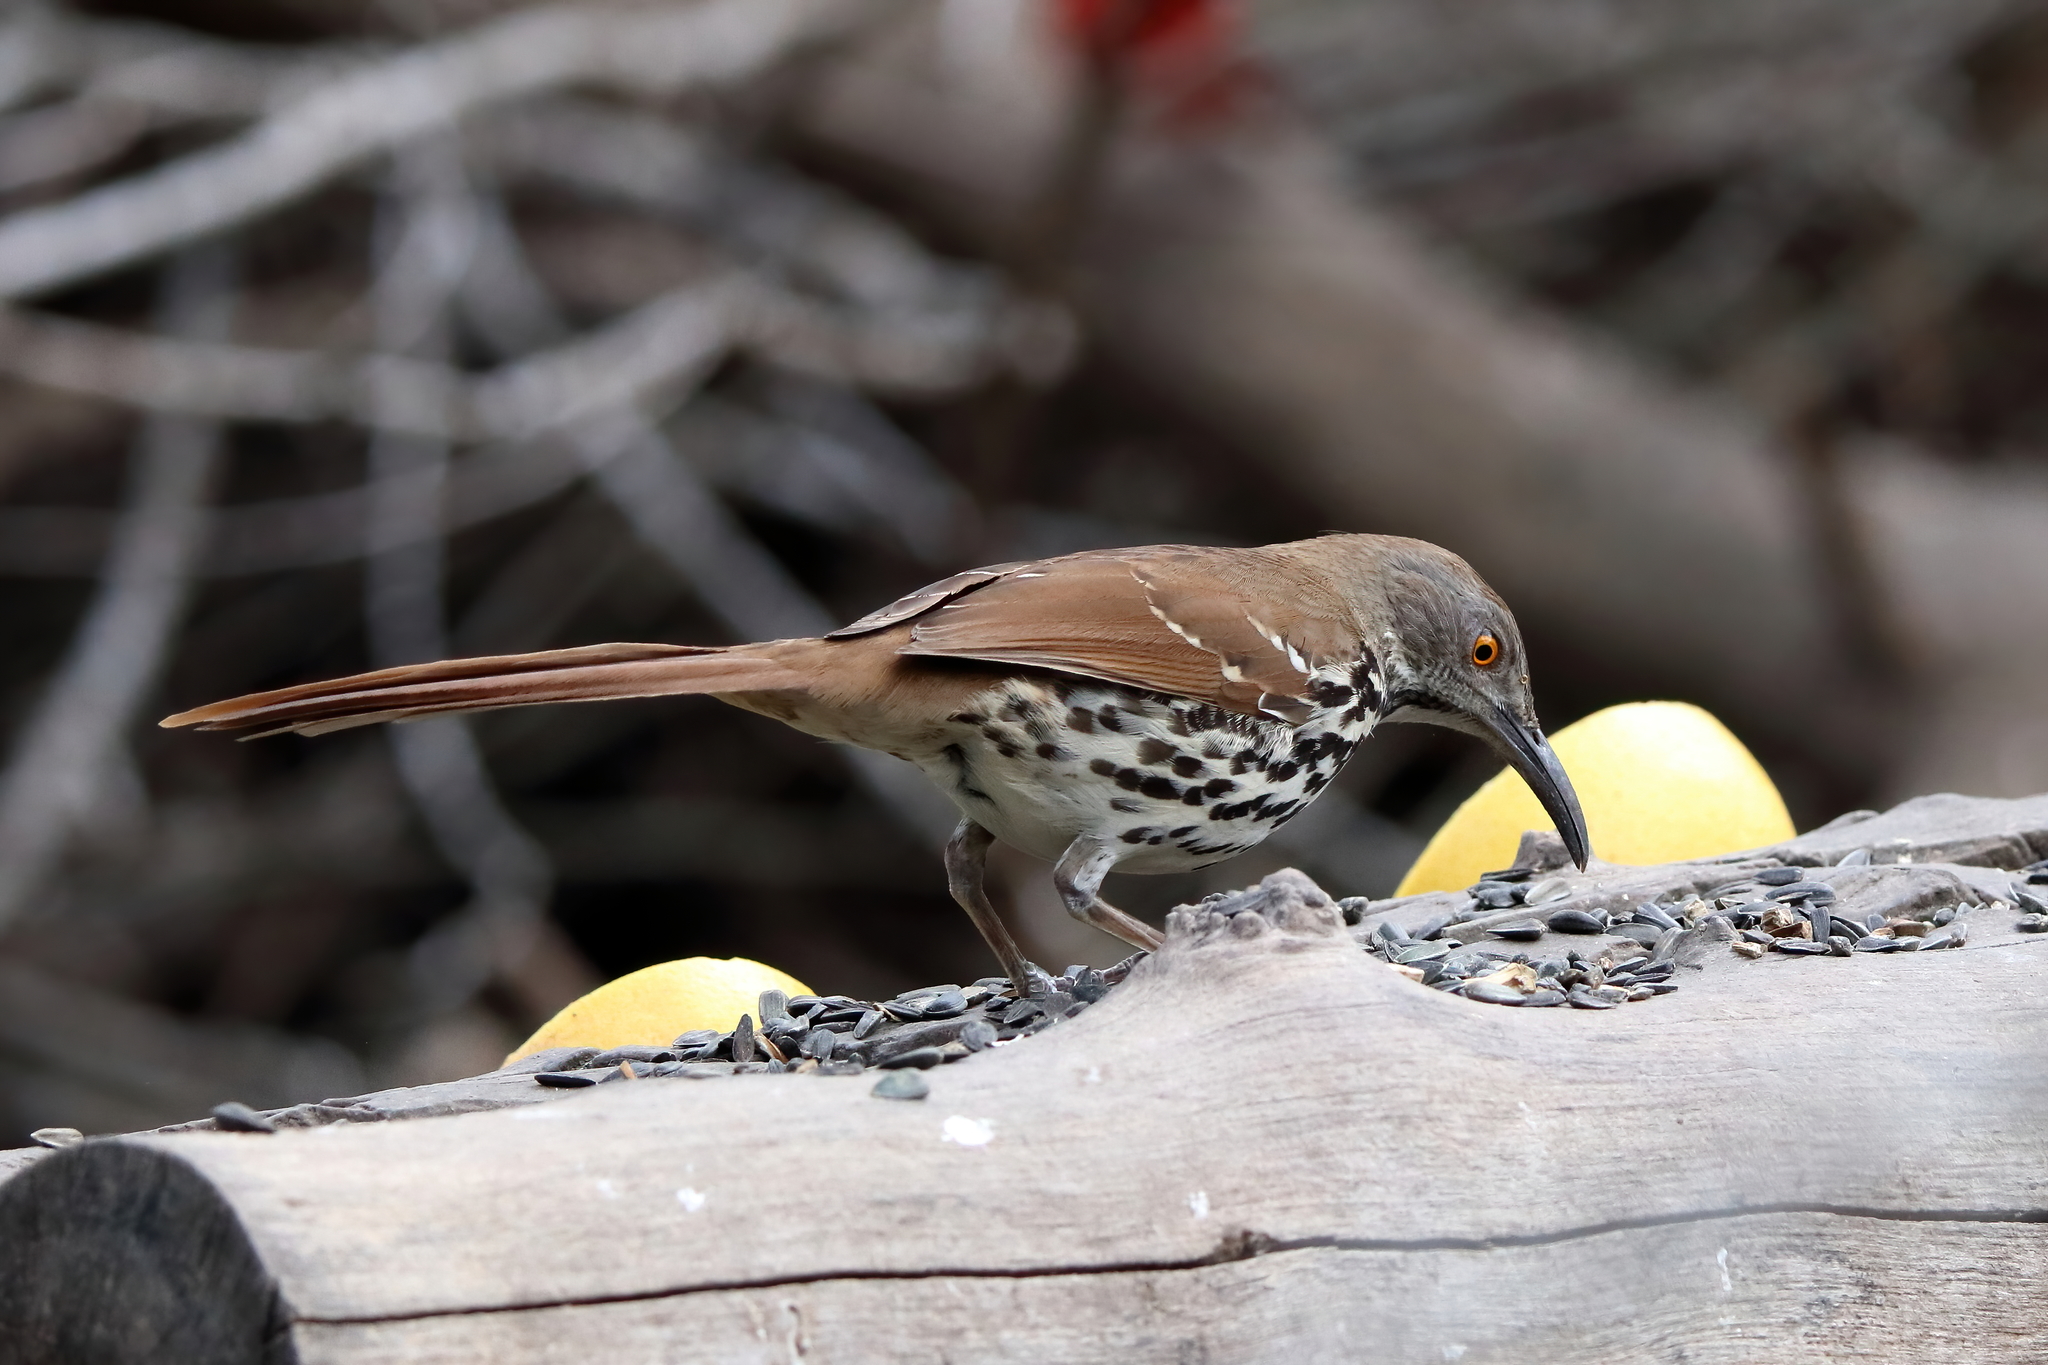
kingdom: Animalia
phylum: Chordata
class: Aves
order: Passeriformes
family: Mimidae
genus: Toxostoma
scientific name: Toxostoma longirostre
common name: Long-billed thrasher
